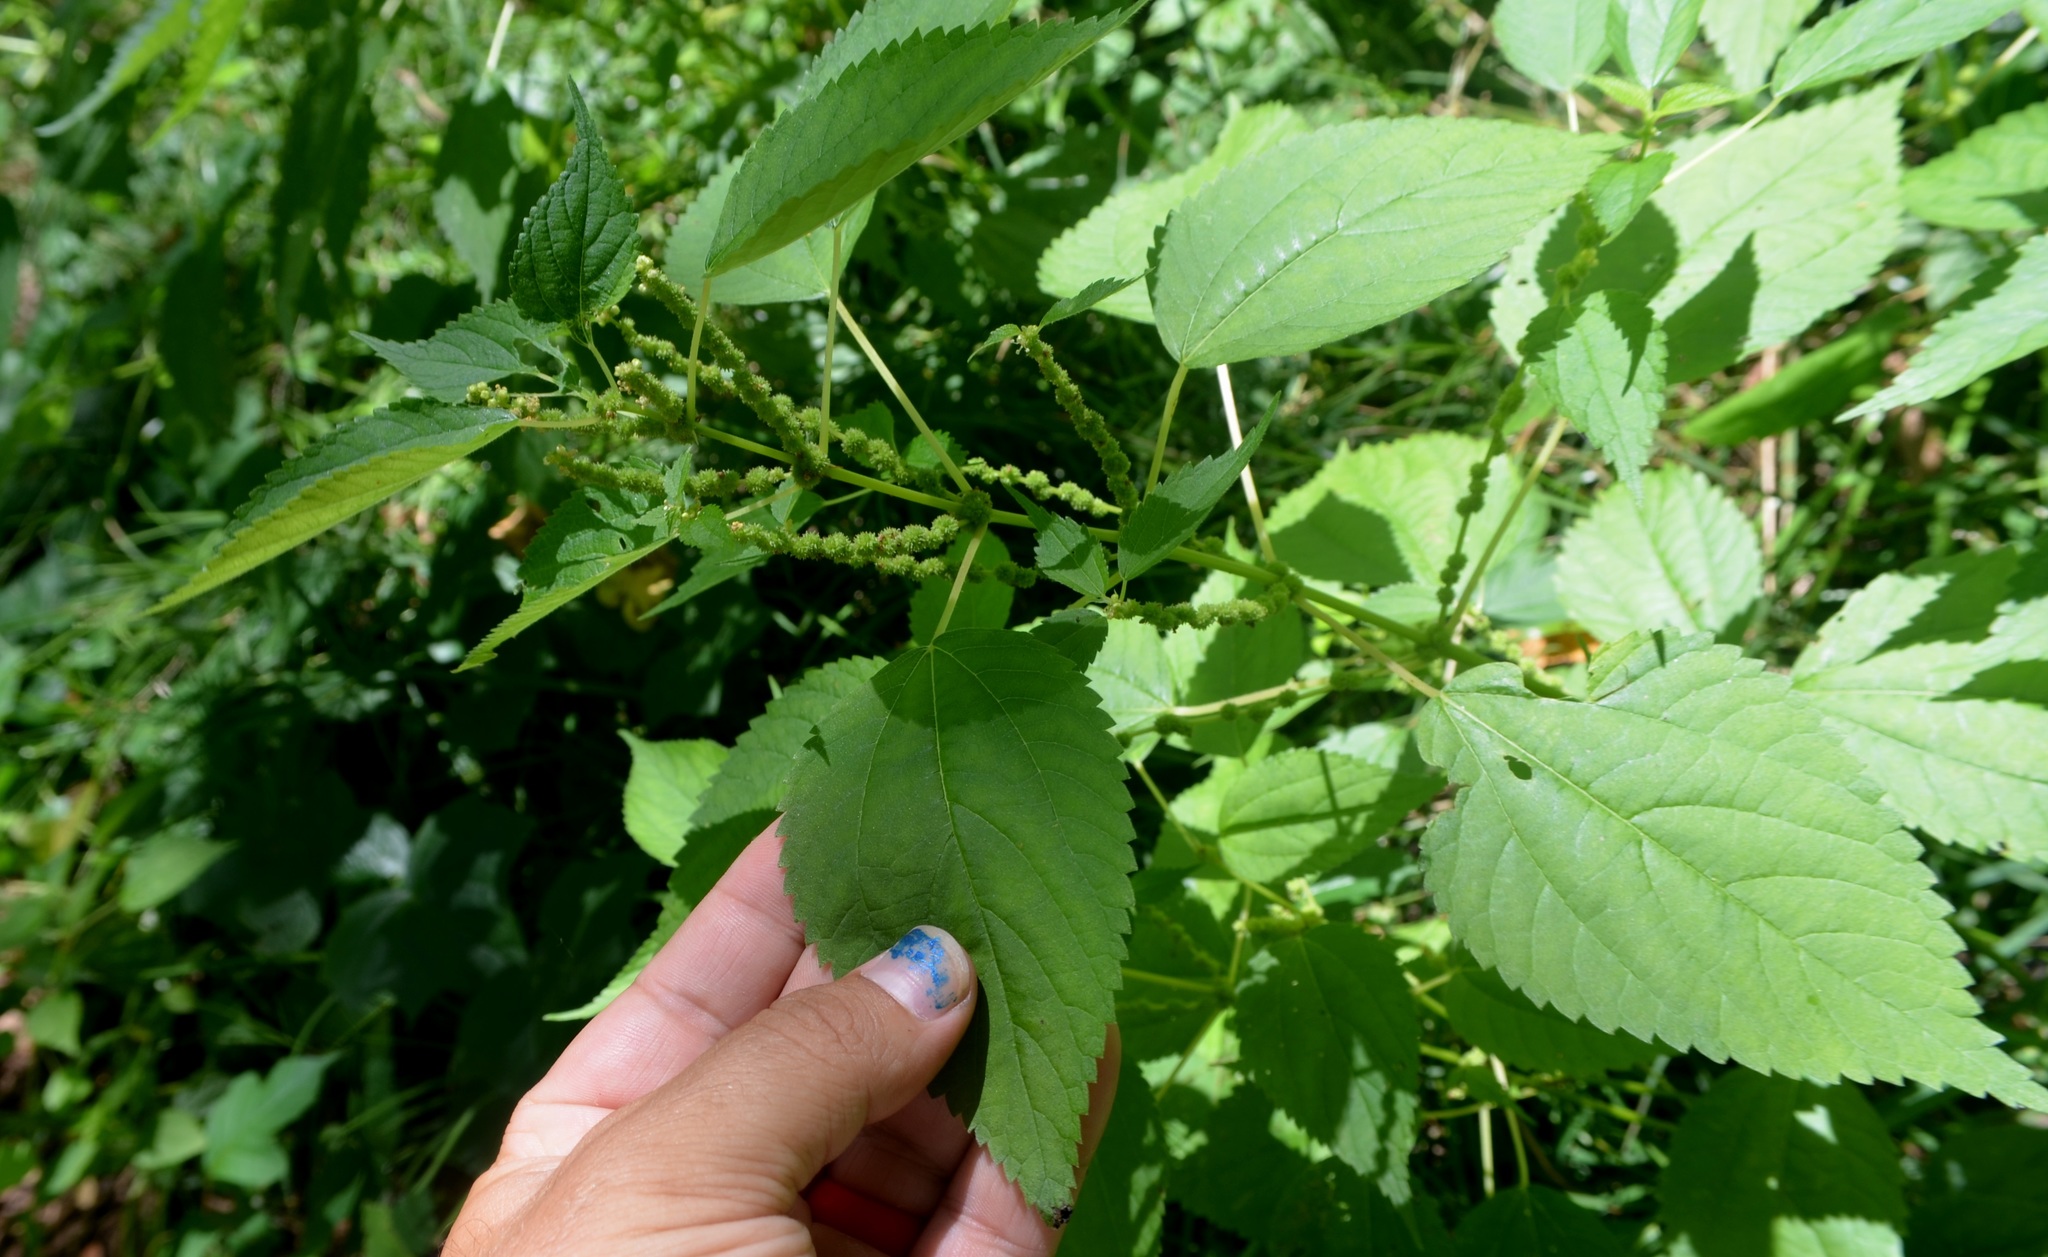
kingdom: Plantae
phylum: Tracheophyta
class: Magnoliopsida
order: Rosales
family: Urticaceae
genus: Boehmeria
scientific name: Boehmeria cylindrica
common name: Bog-hemp
